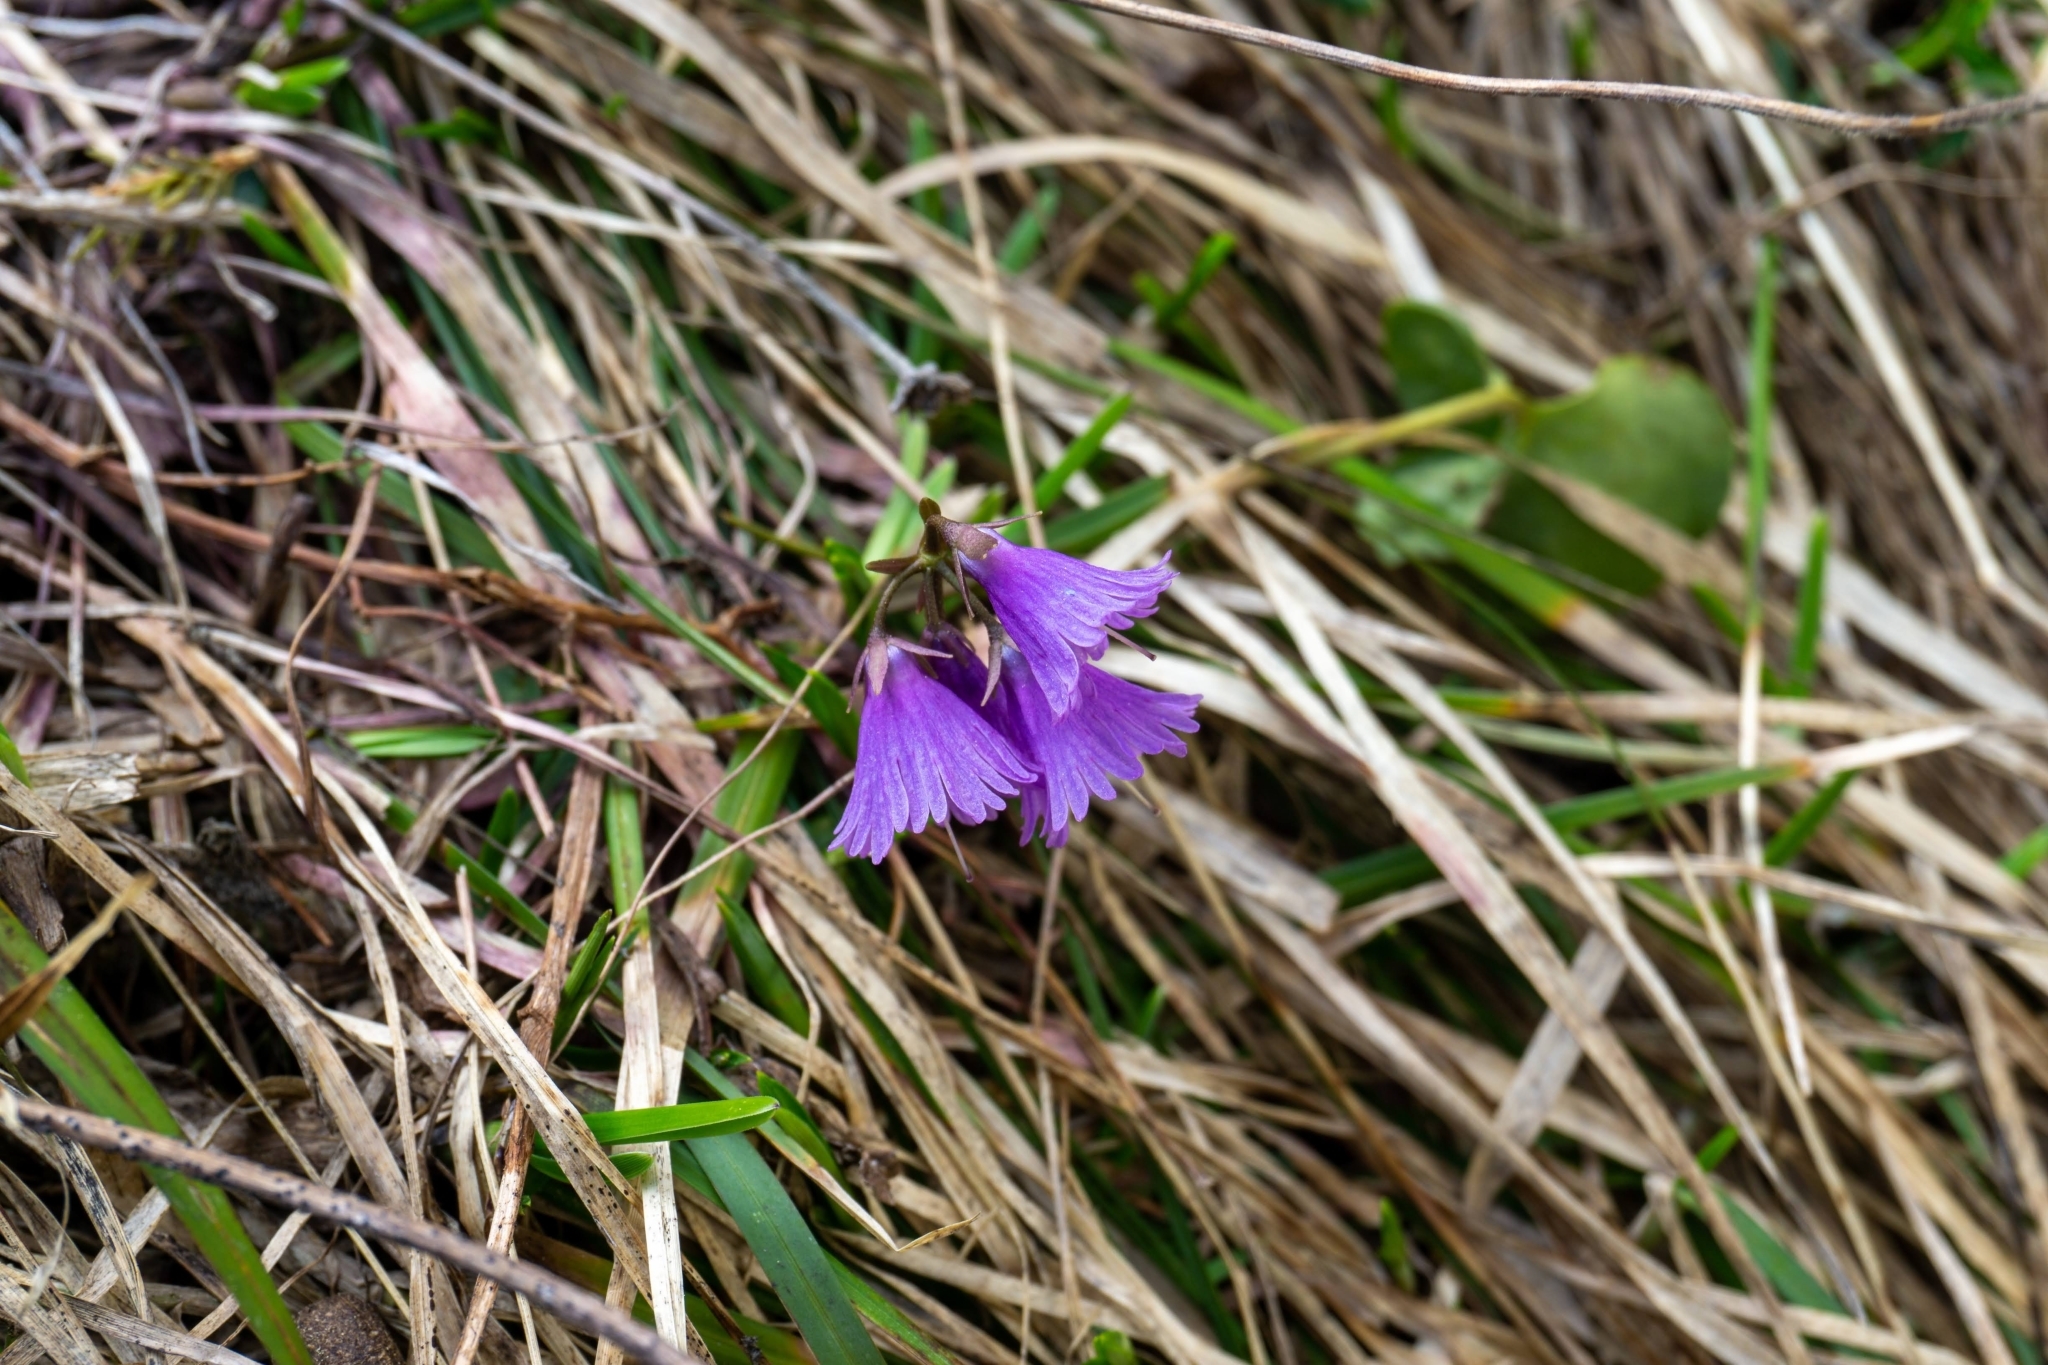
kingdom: Plantae
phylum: Tracheophyta
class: Magnoliopsida
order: Ericales
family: Primulaceae
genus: Soldanella
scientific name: Soldanella alpina
